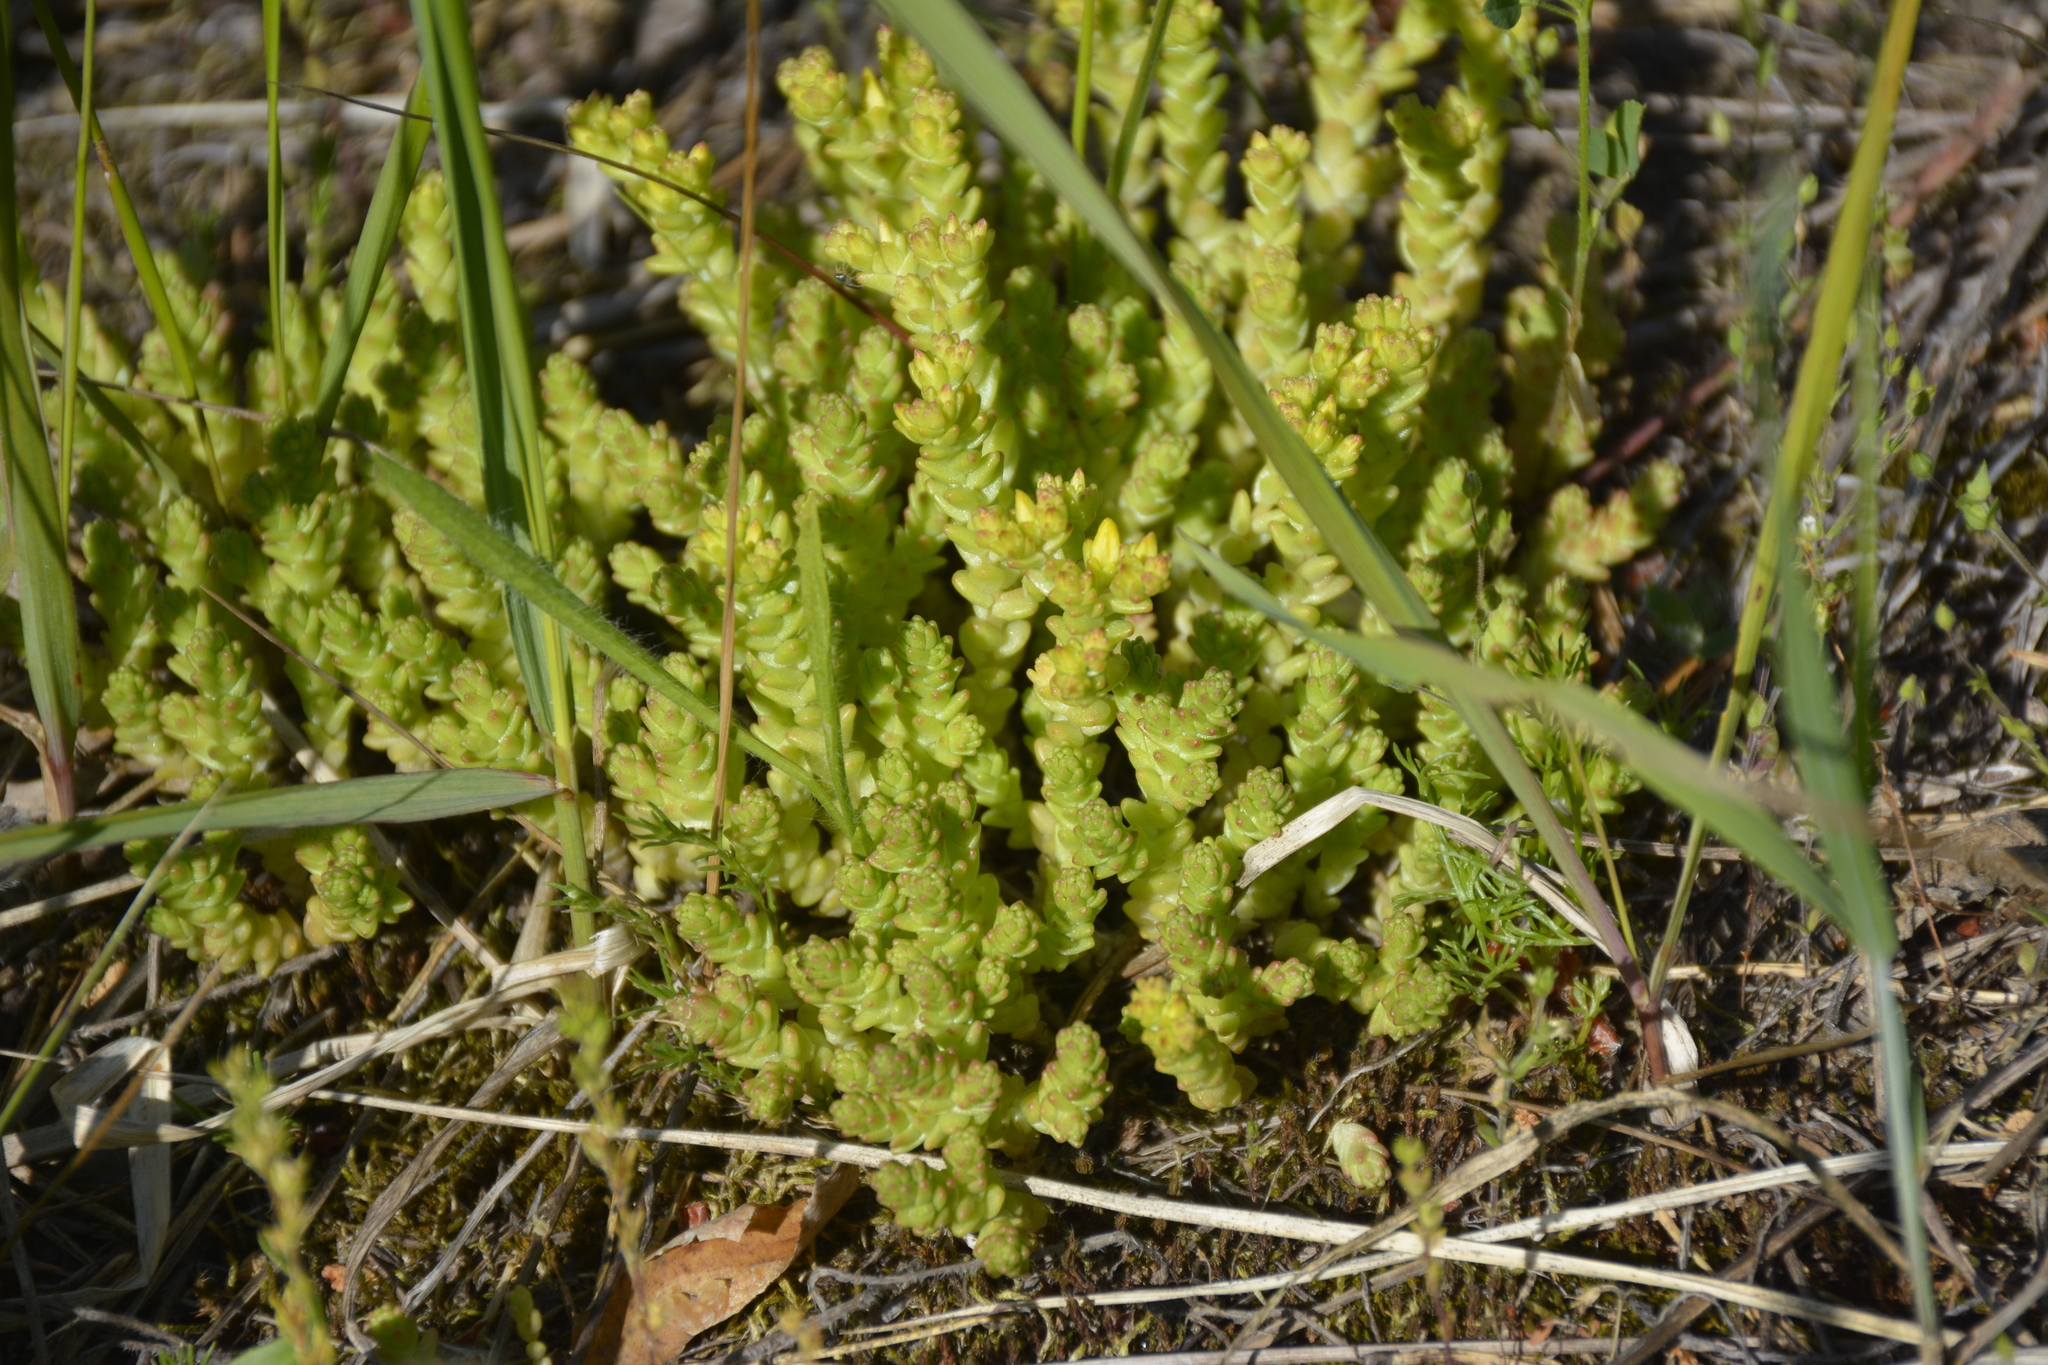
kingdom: Plantae
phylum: Tracheophyta
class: Magnoliopsida
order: Saxifragales
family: Crassulaceae
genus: Sedum
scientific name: Sedum acre
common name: Biting stonecrop
